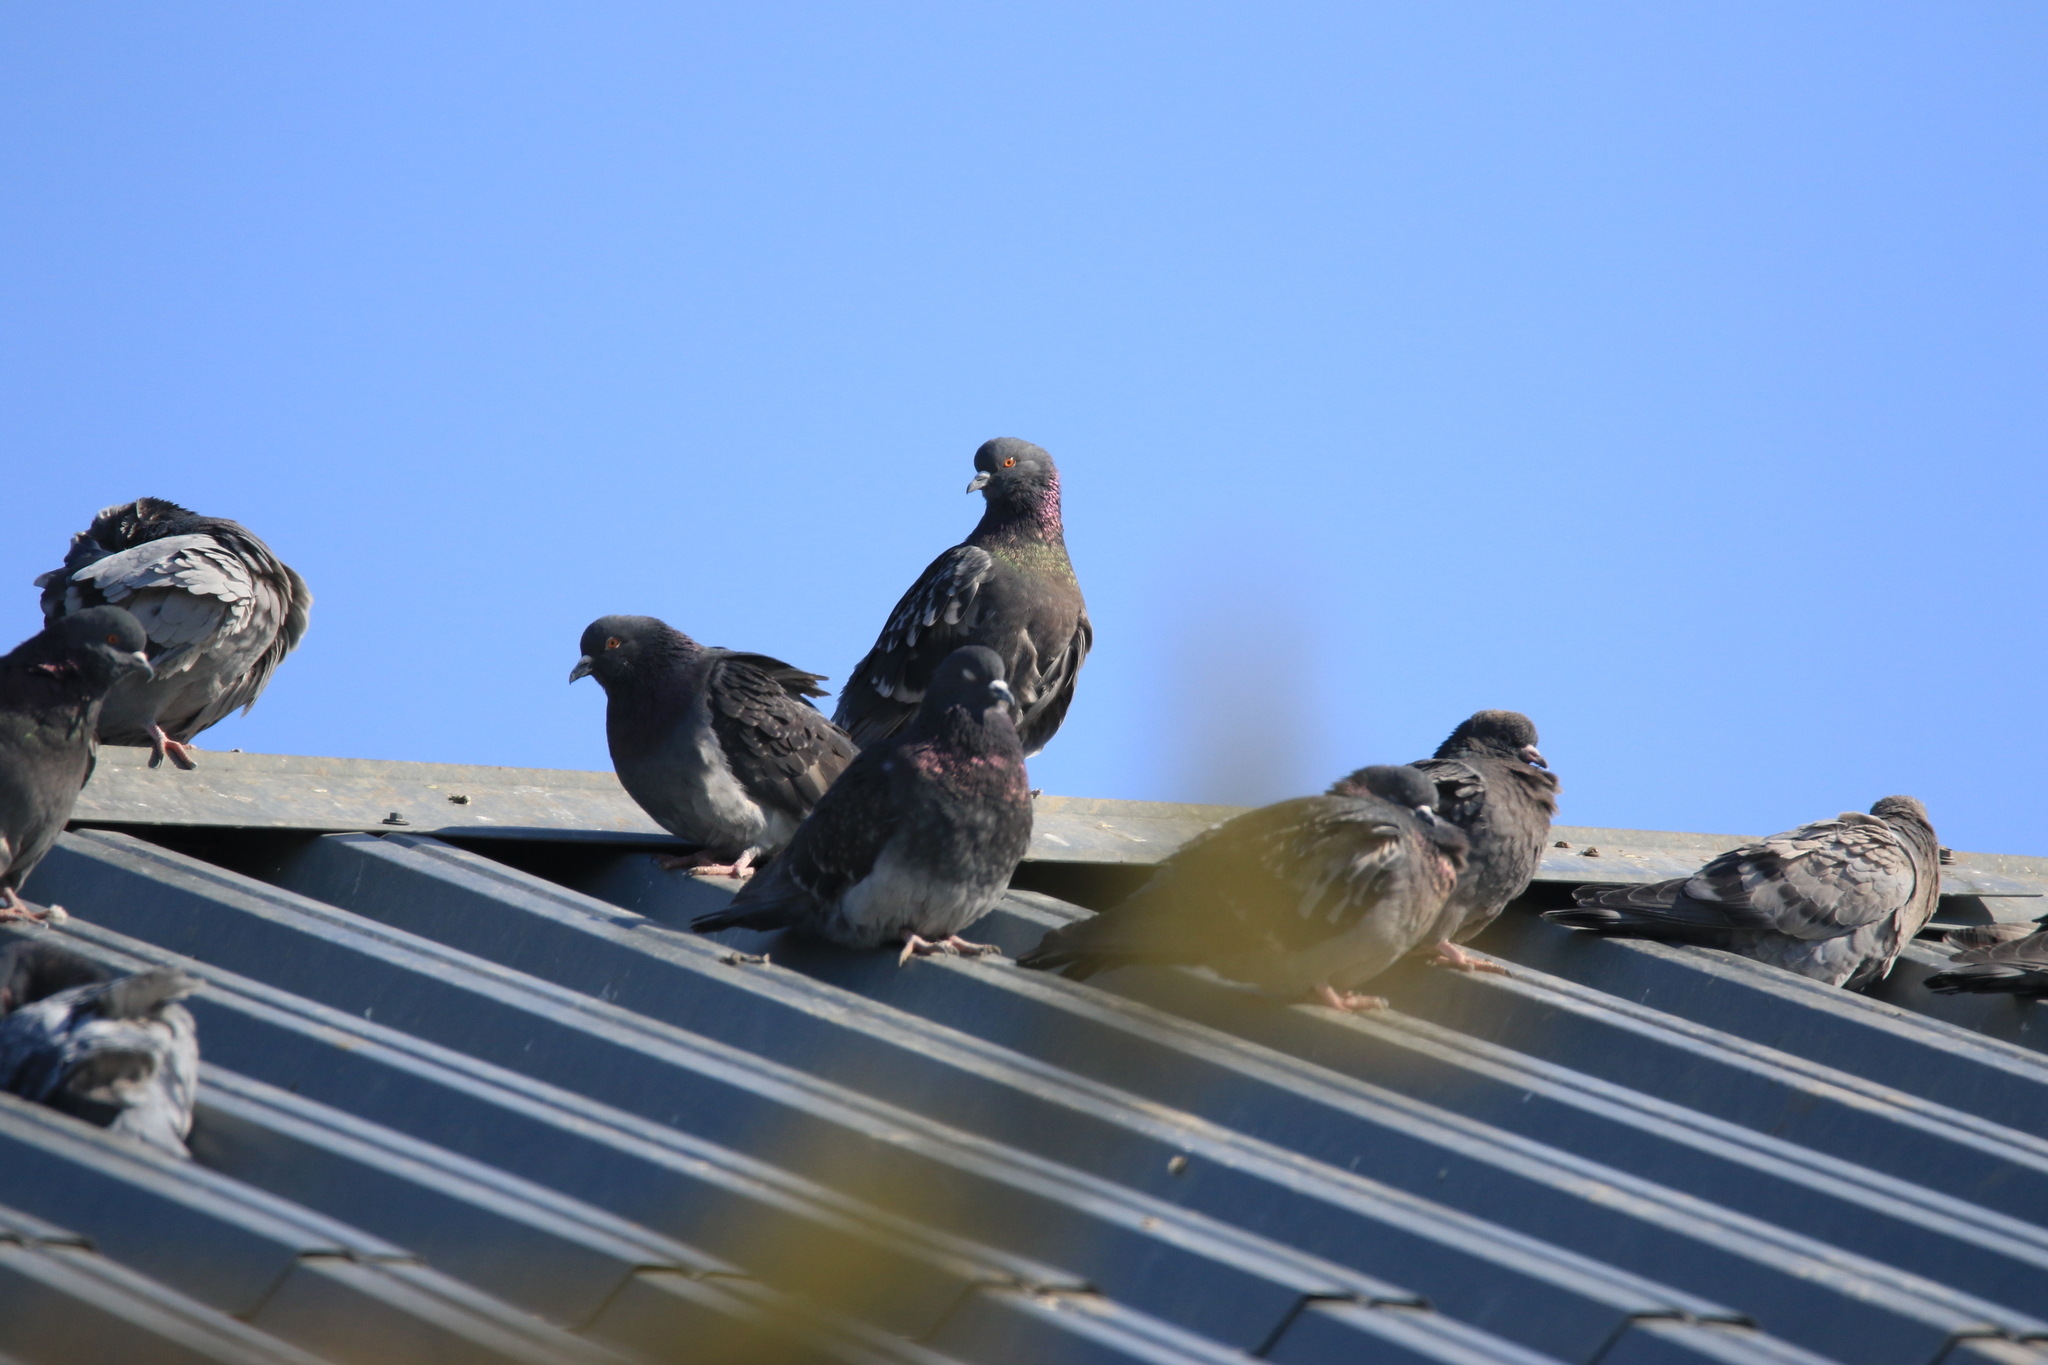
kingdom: Animalia
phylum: Chordata
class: Aves
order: Columbiformes
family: Columbidae
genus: Columba
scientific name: Columba livia
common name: Rock pigeon
